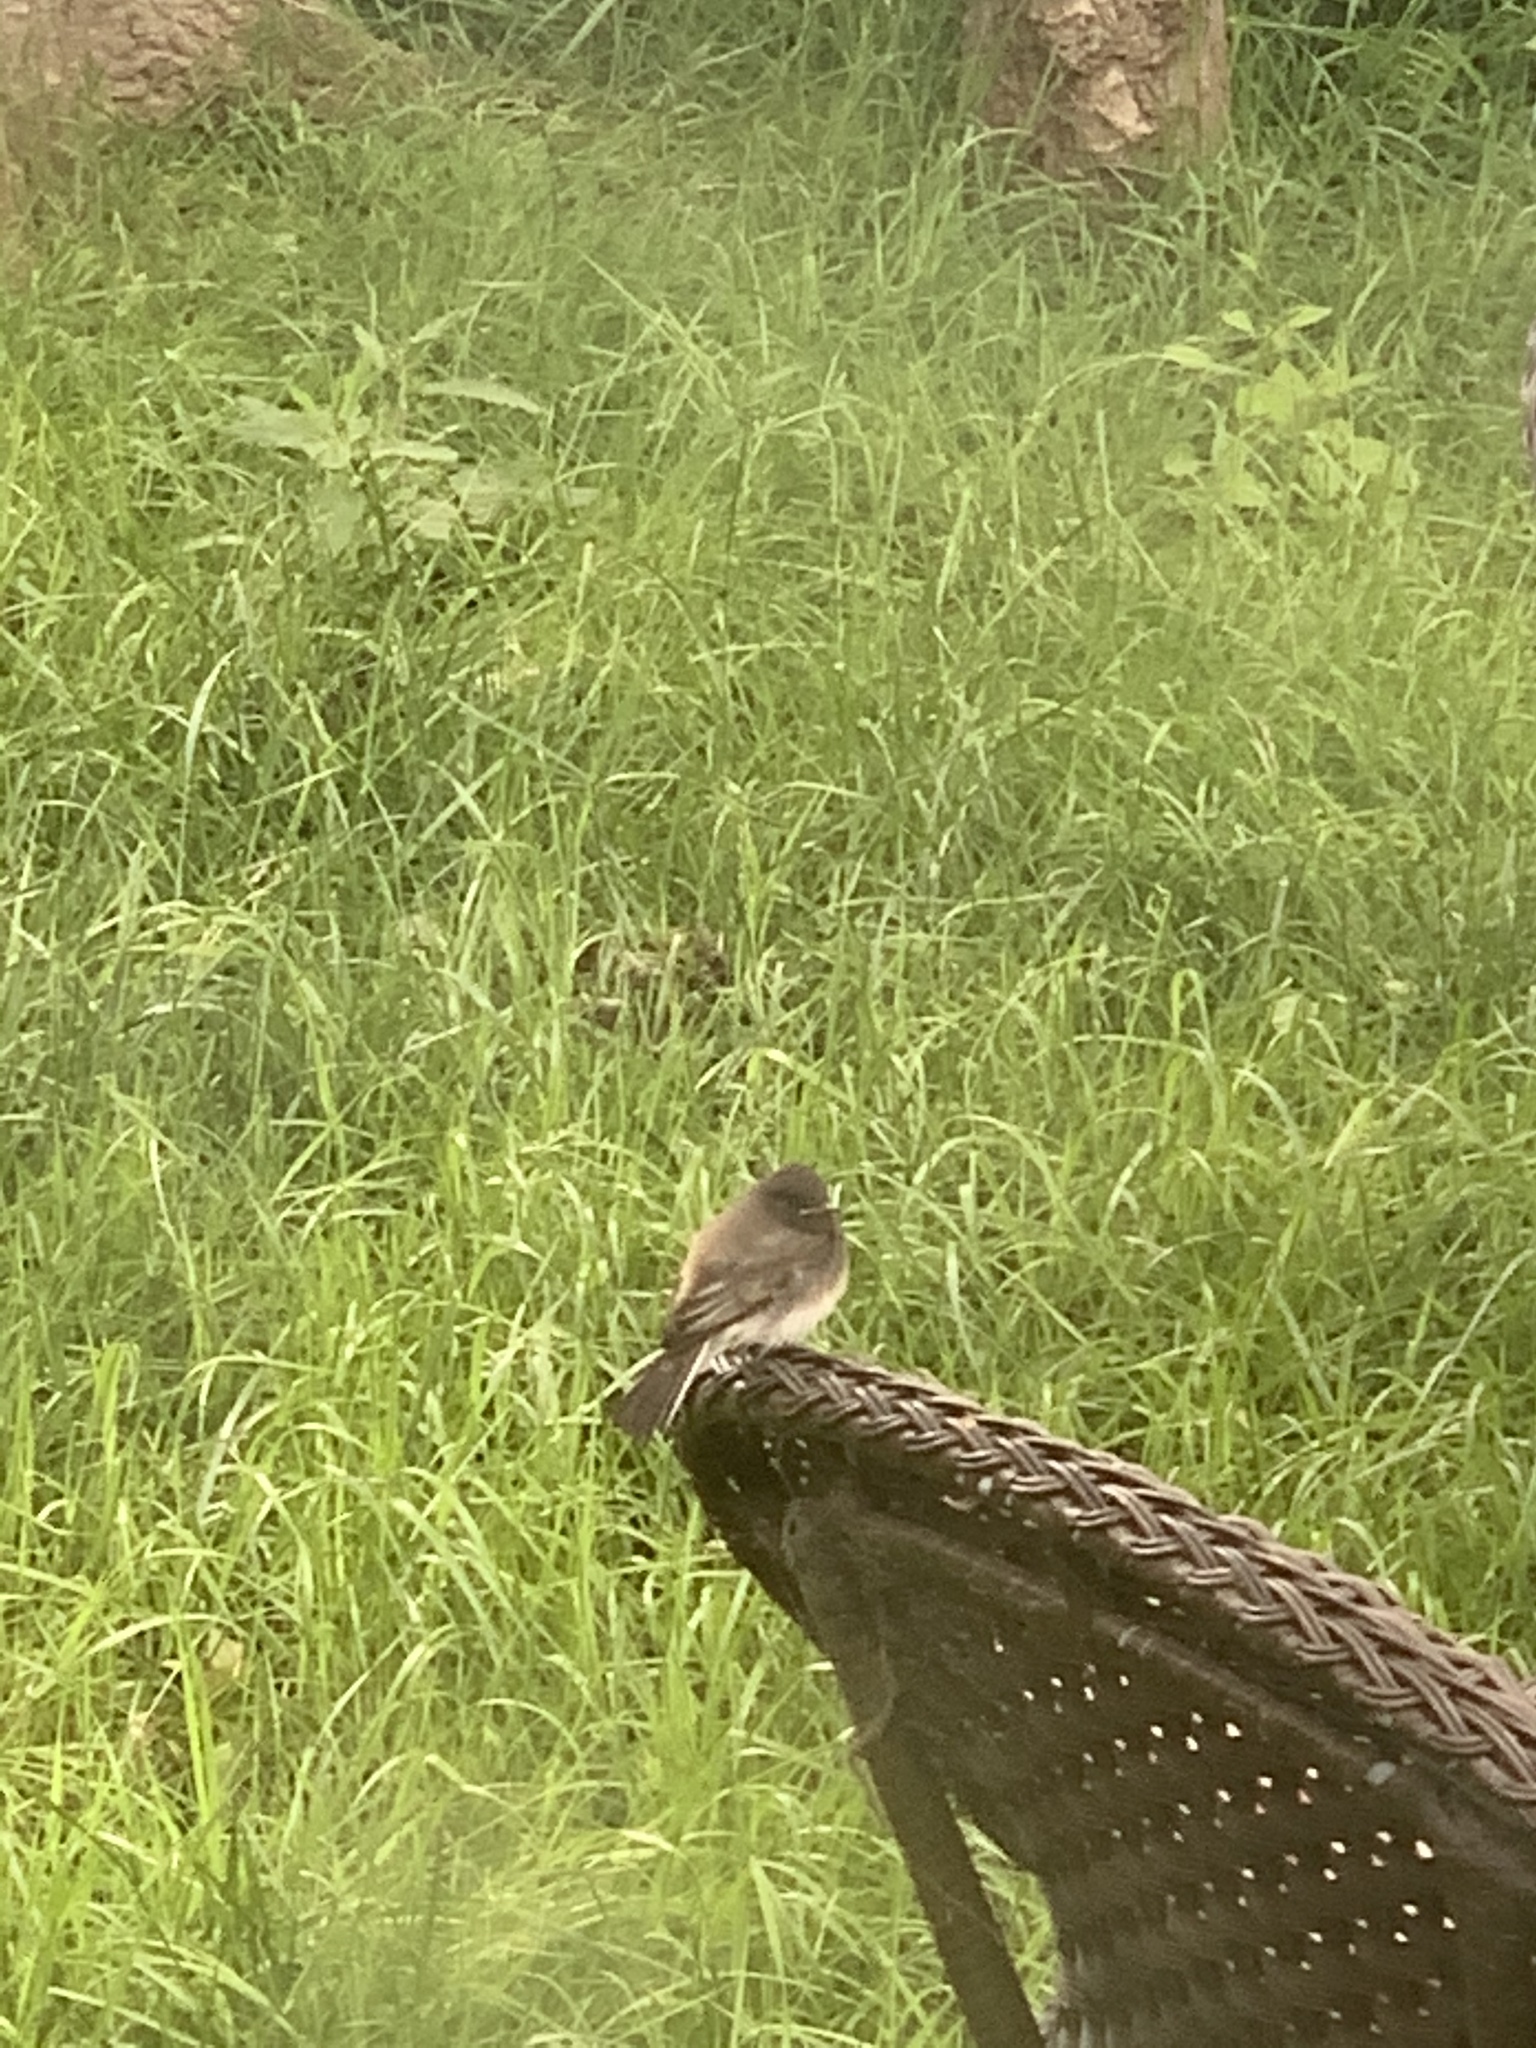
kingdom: Animalia
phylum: Chordata
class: Aves
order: Passeriformes
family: Tyrannidae
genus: Sayornis
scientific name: Sayornis nigricans
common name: Black phoebe
